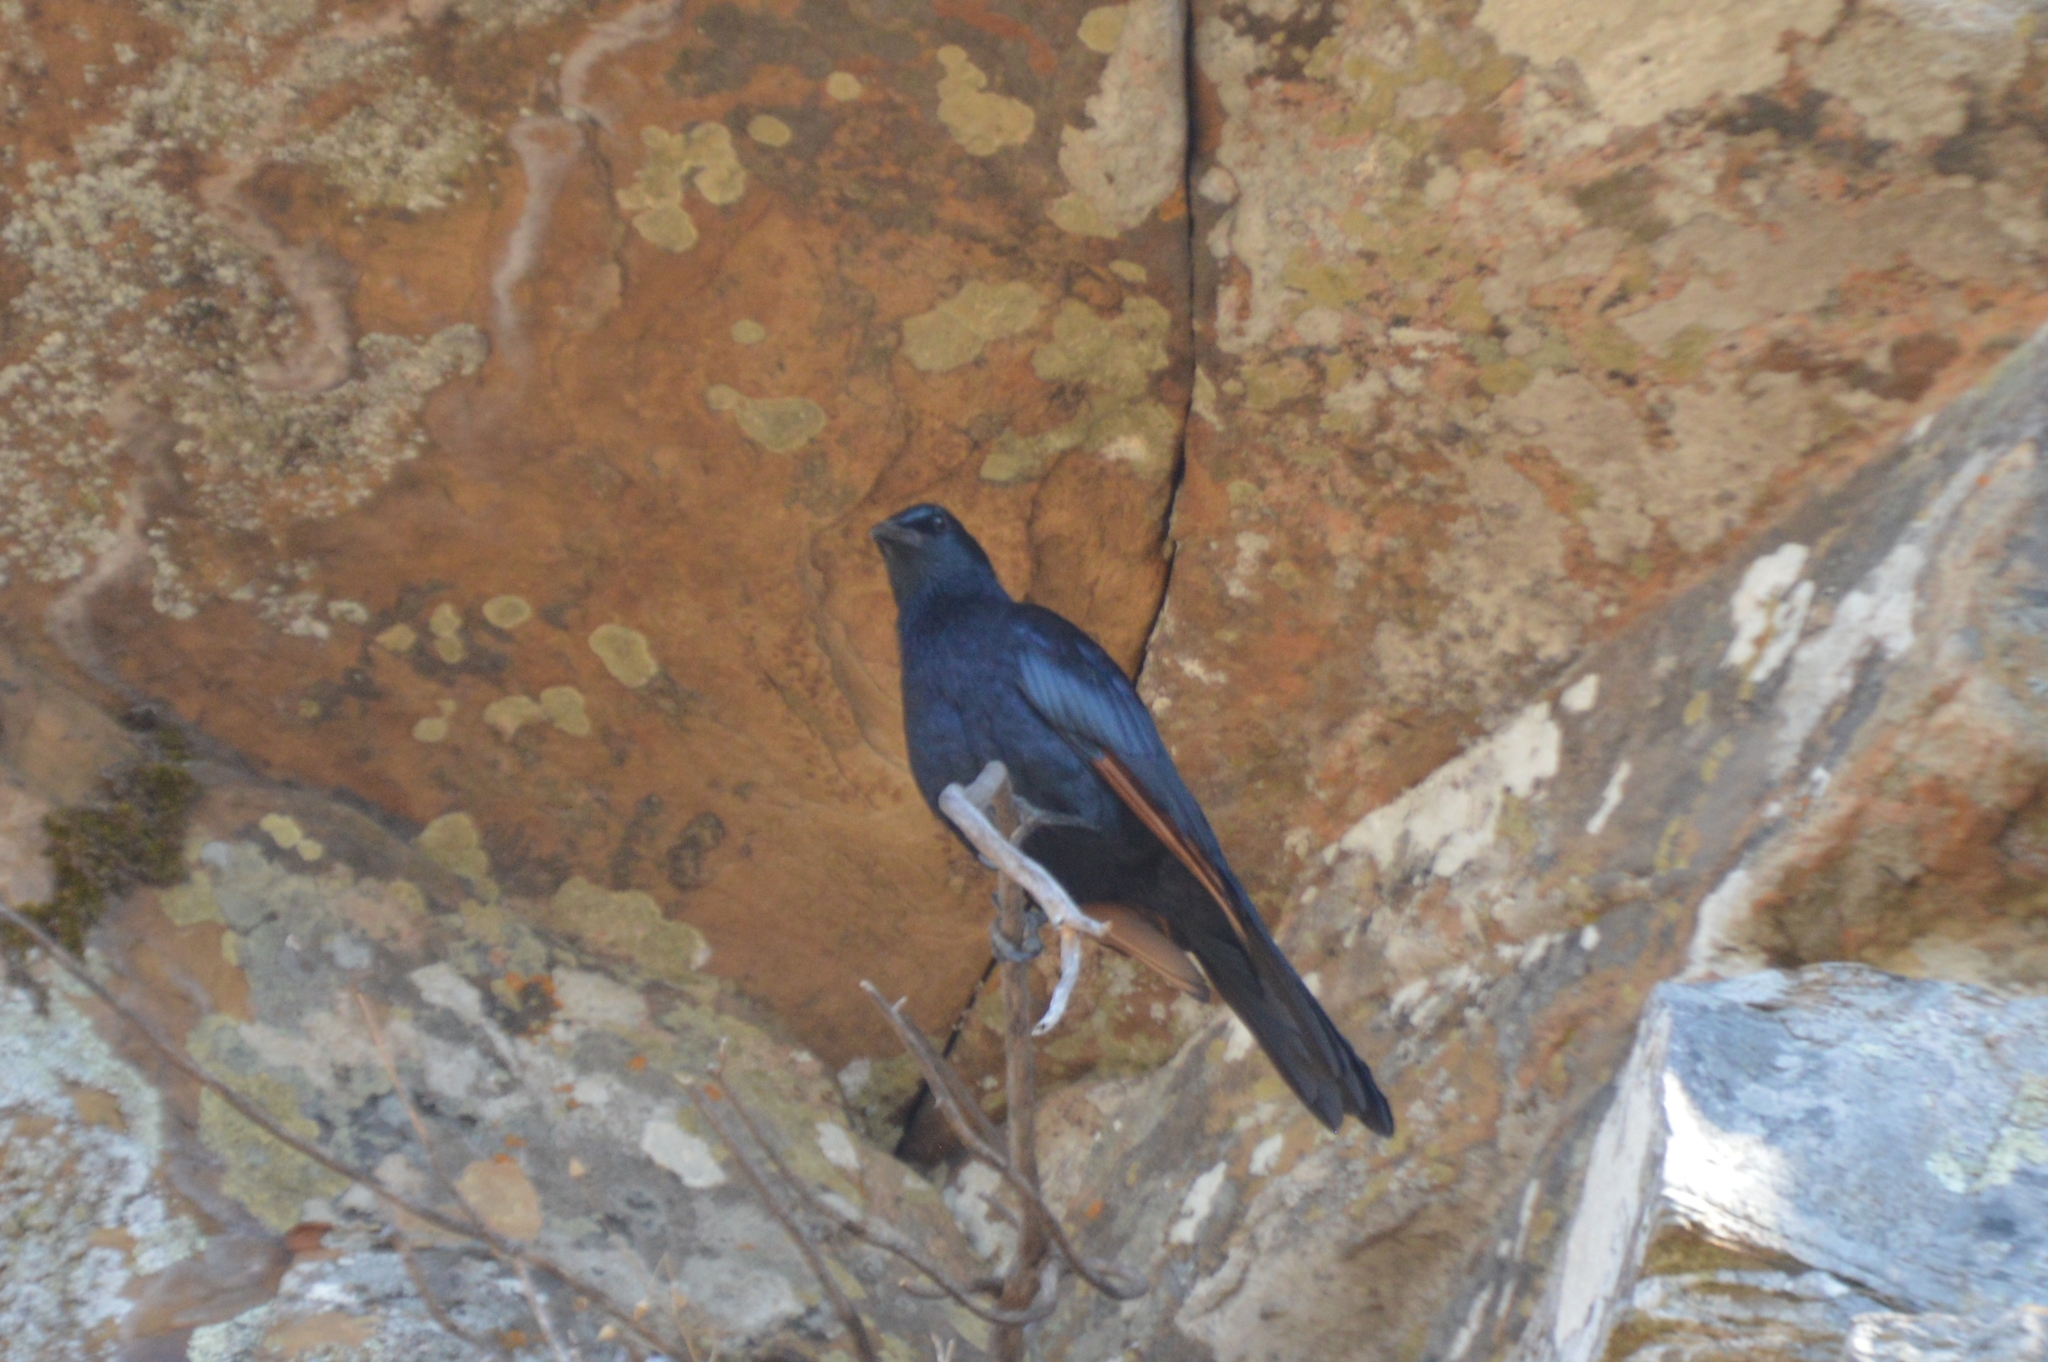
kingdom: Animalia
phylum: Chordata
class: Aves
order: Passeriformes
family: Sturnidae
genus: Onychognathus
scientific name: Onychognathus morio
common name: Red-winged starling
